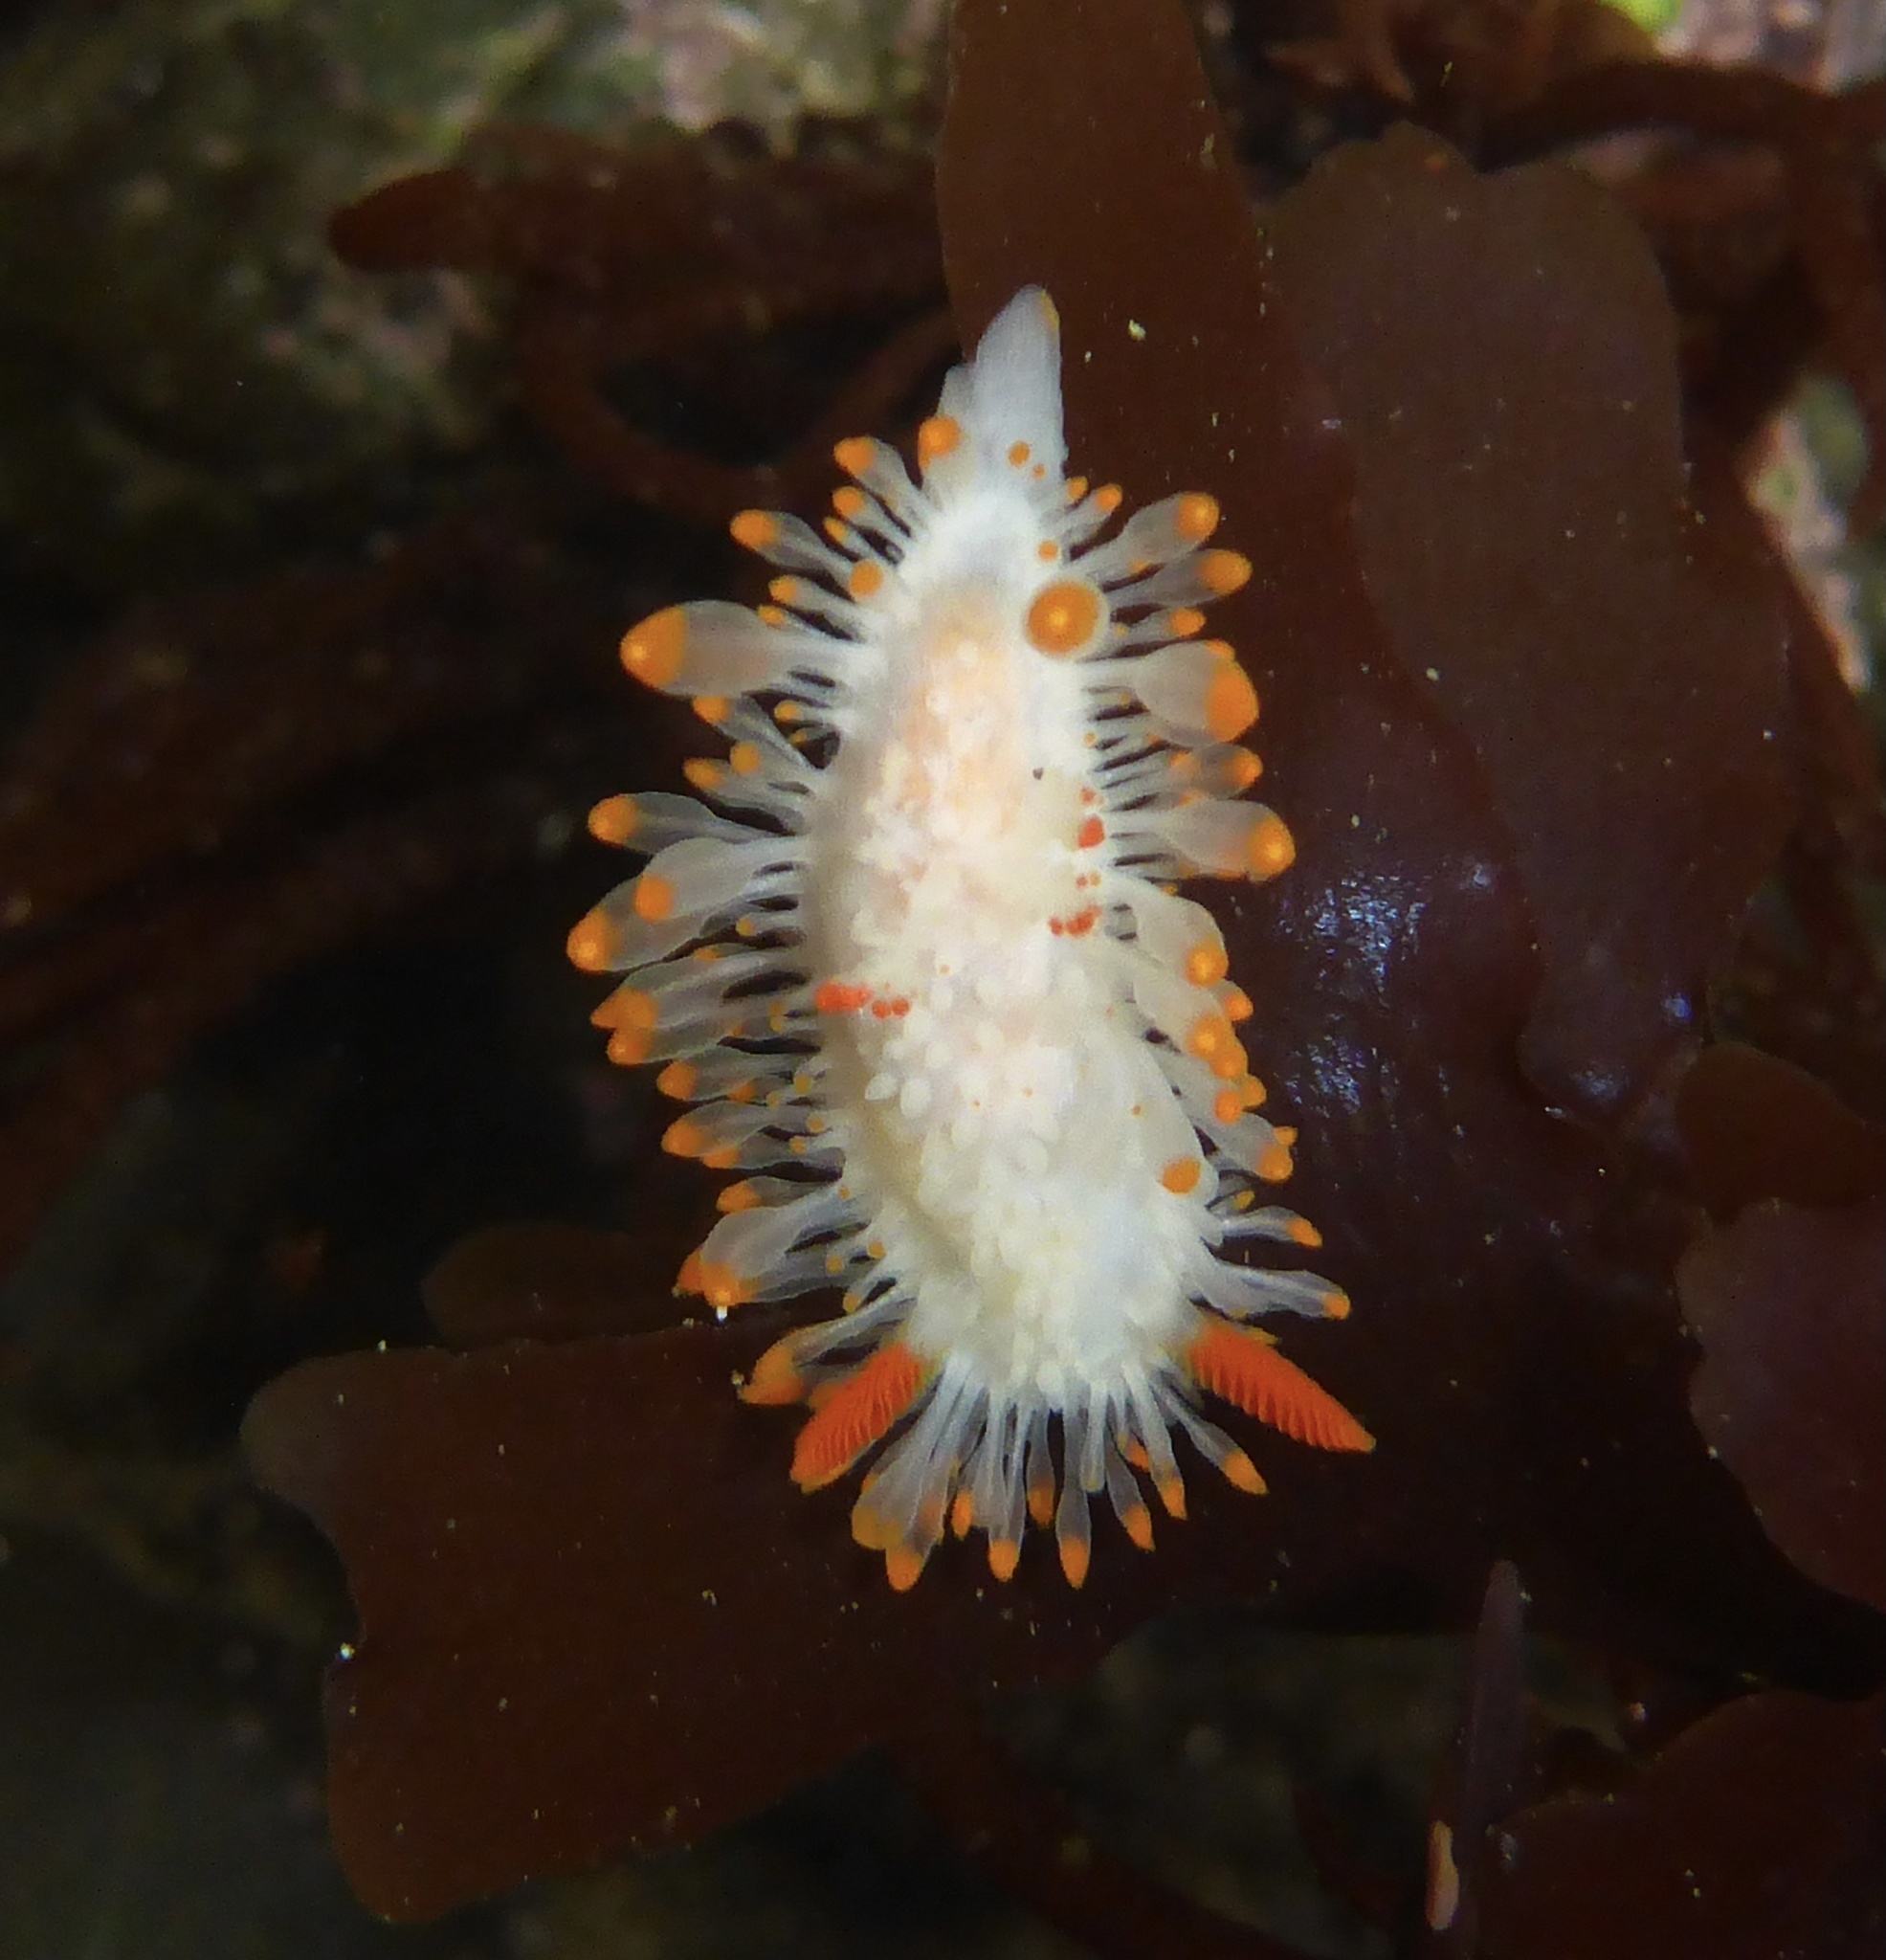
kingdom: Animalia
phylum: Mollusca
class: Gastropoda
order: Nudibranchia
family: Polyceridae
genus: Limacia
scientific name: Limacia cockerelli
